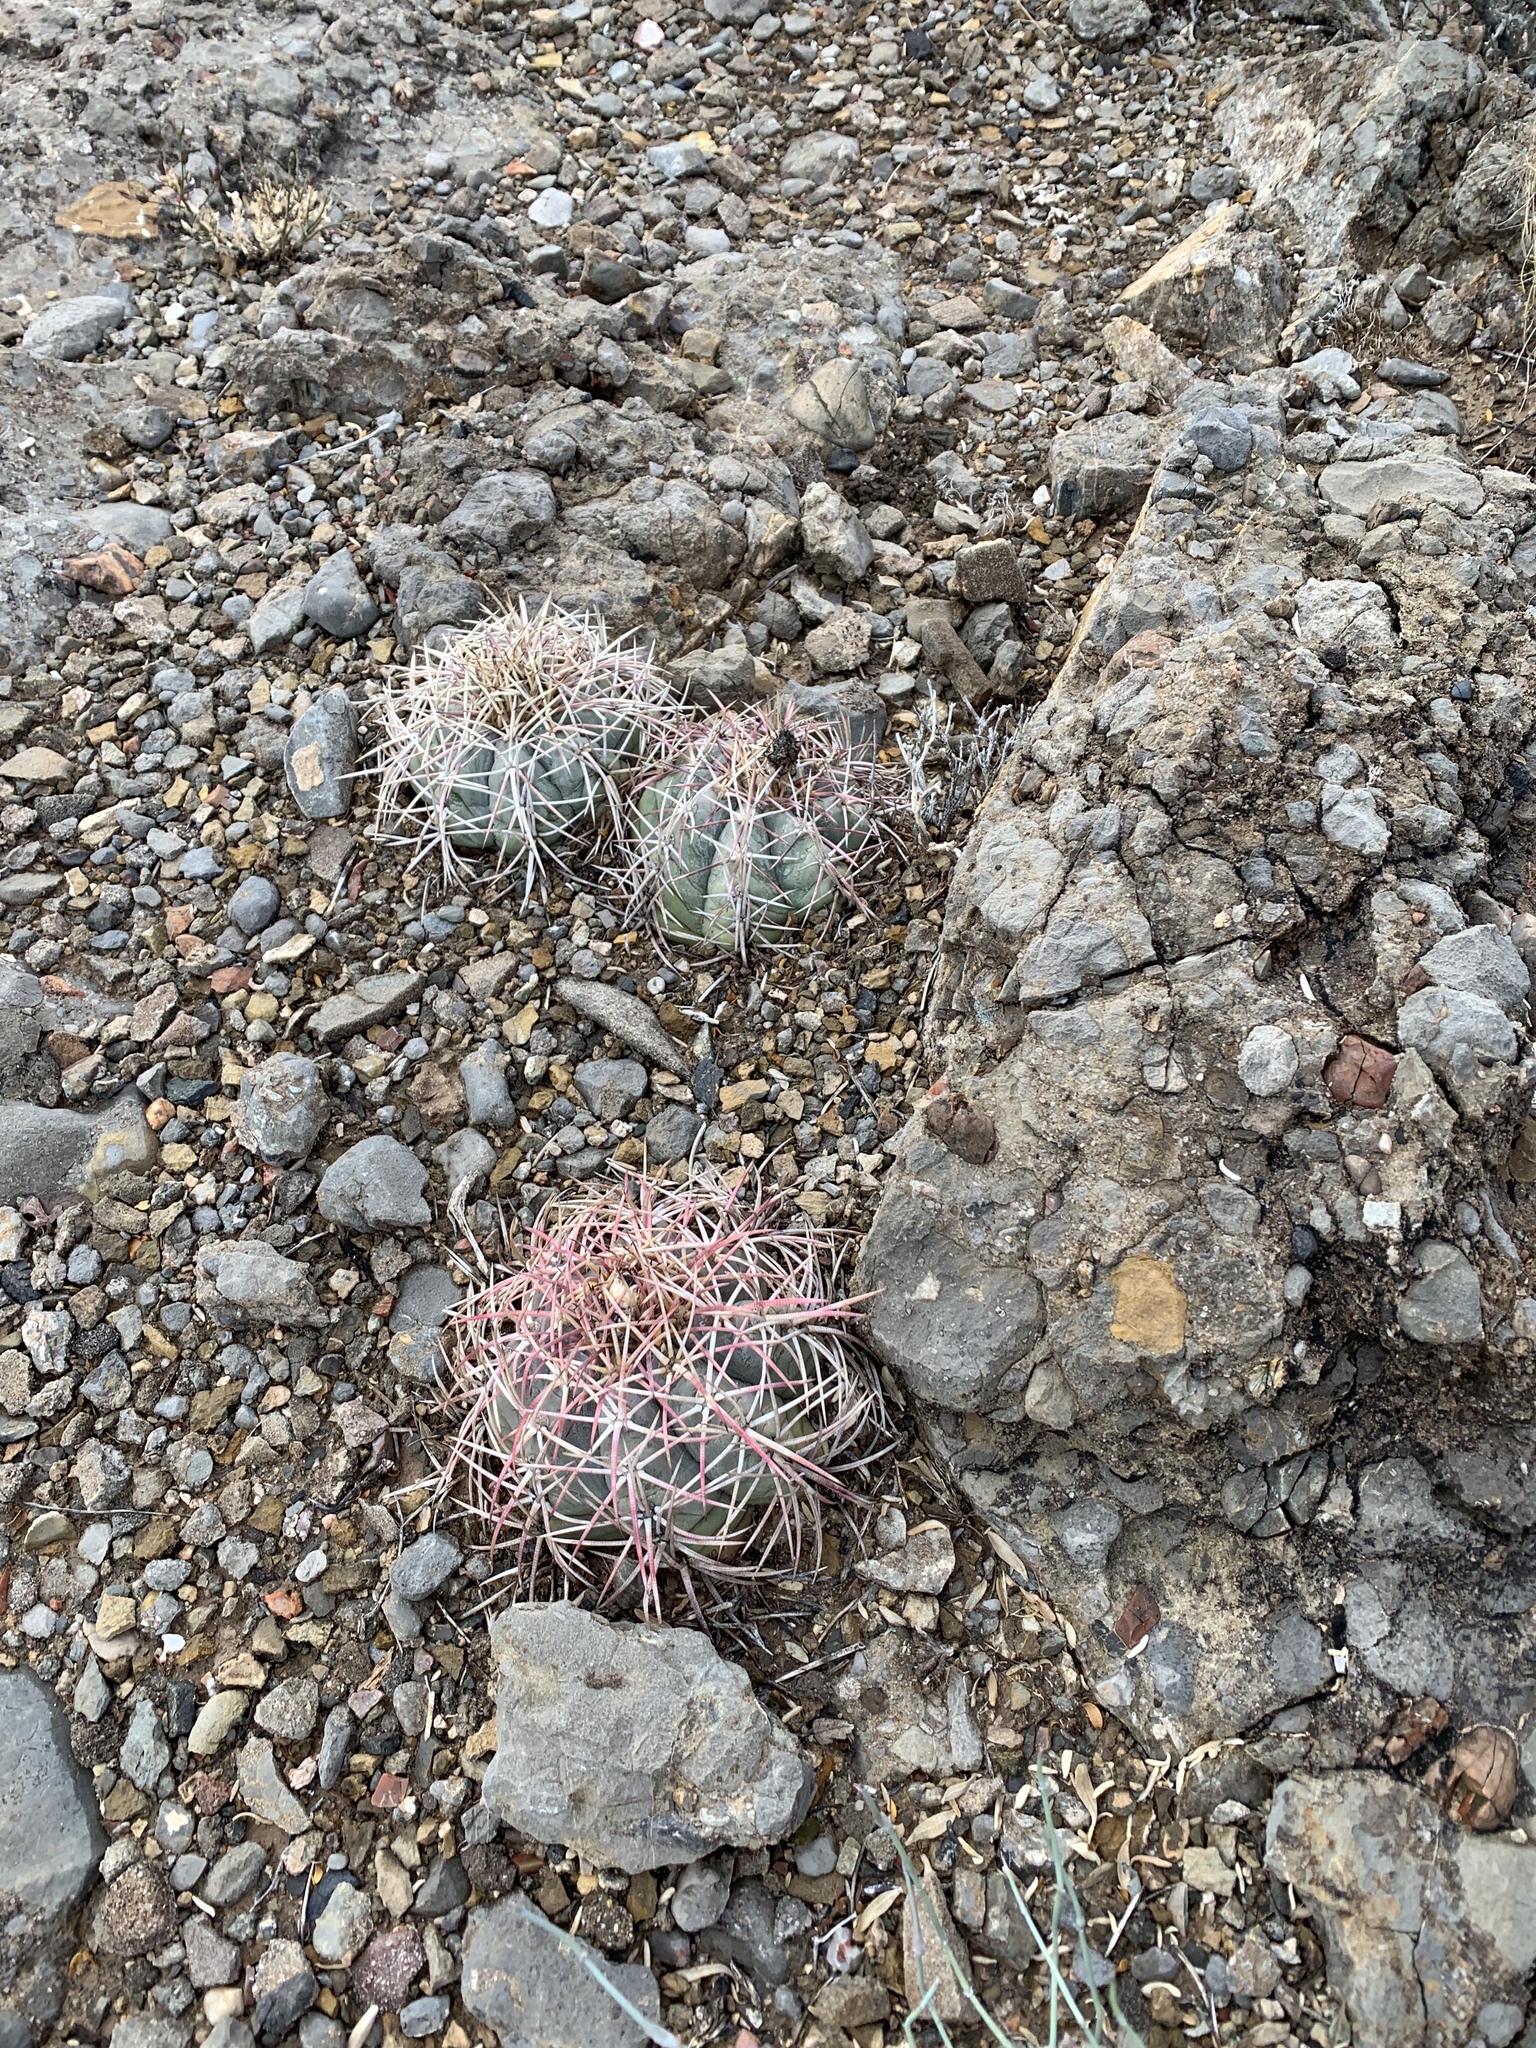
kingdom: Plantae
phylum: Tracheophyta
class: Magnoliopsida
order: Caryophyllales
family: Cactaceae
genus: Echinocactus
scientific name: Echinocactus horizonthalonius
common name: Devilshead
